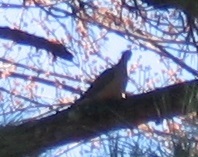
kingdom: Animalia
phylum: Chordata
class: Aves
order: Columbiformes
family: Columbidae
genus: Zenaida
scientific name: Zenaida macroura
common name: Mourning dove
